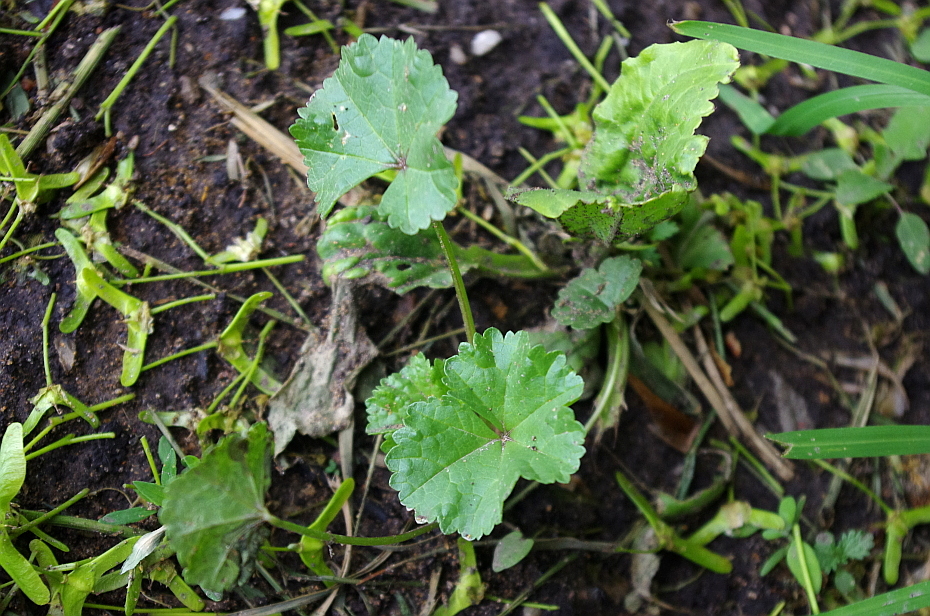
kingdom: Plantae
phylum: Tracheophyta
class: Magnoliopsida
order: Malvales
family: Malvaceae
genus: Malva
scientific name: Malva pusilla
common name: Small mallow
